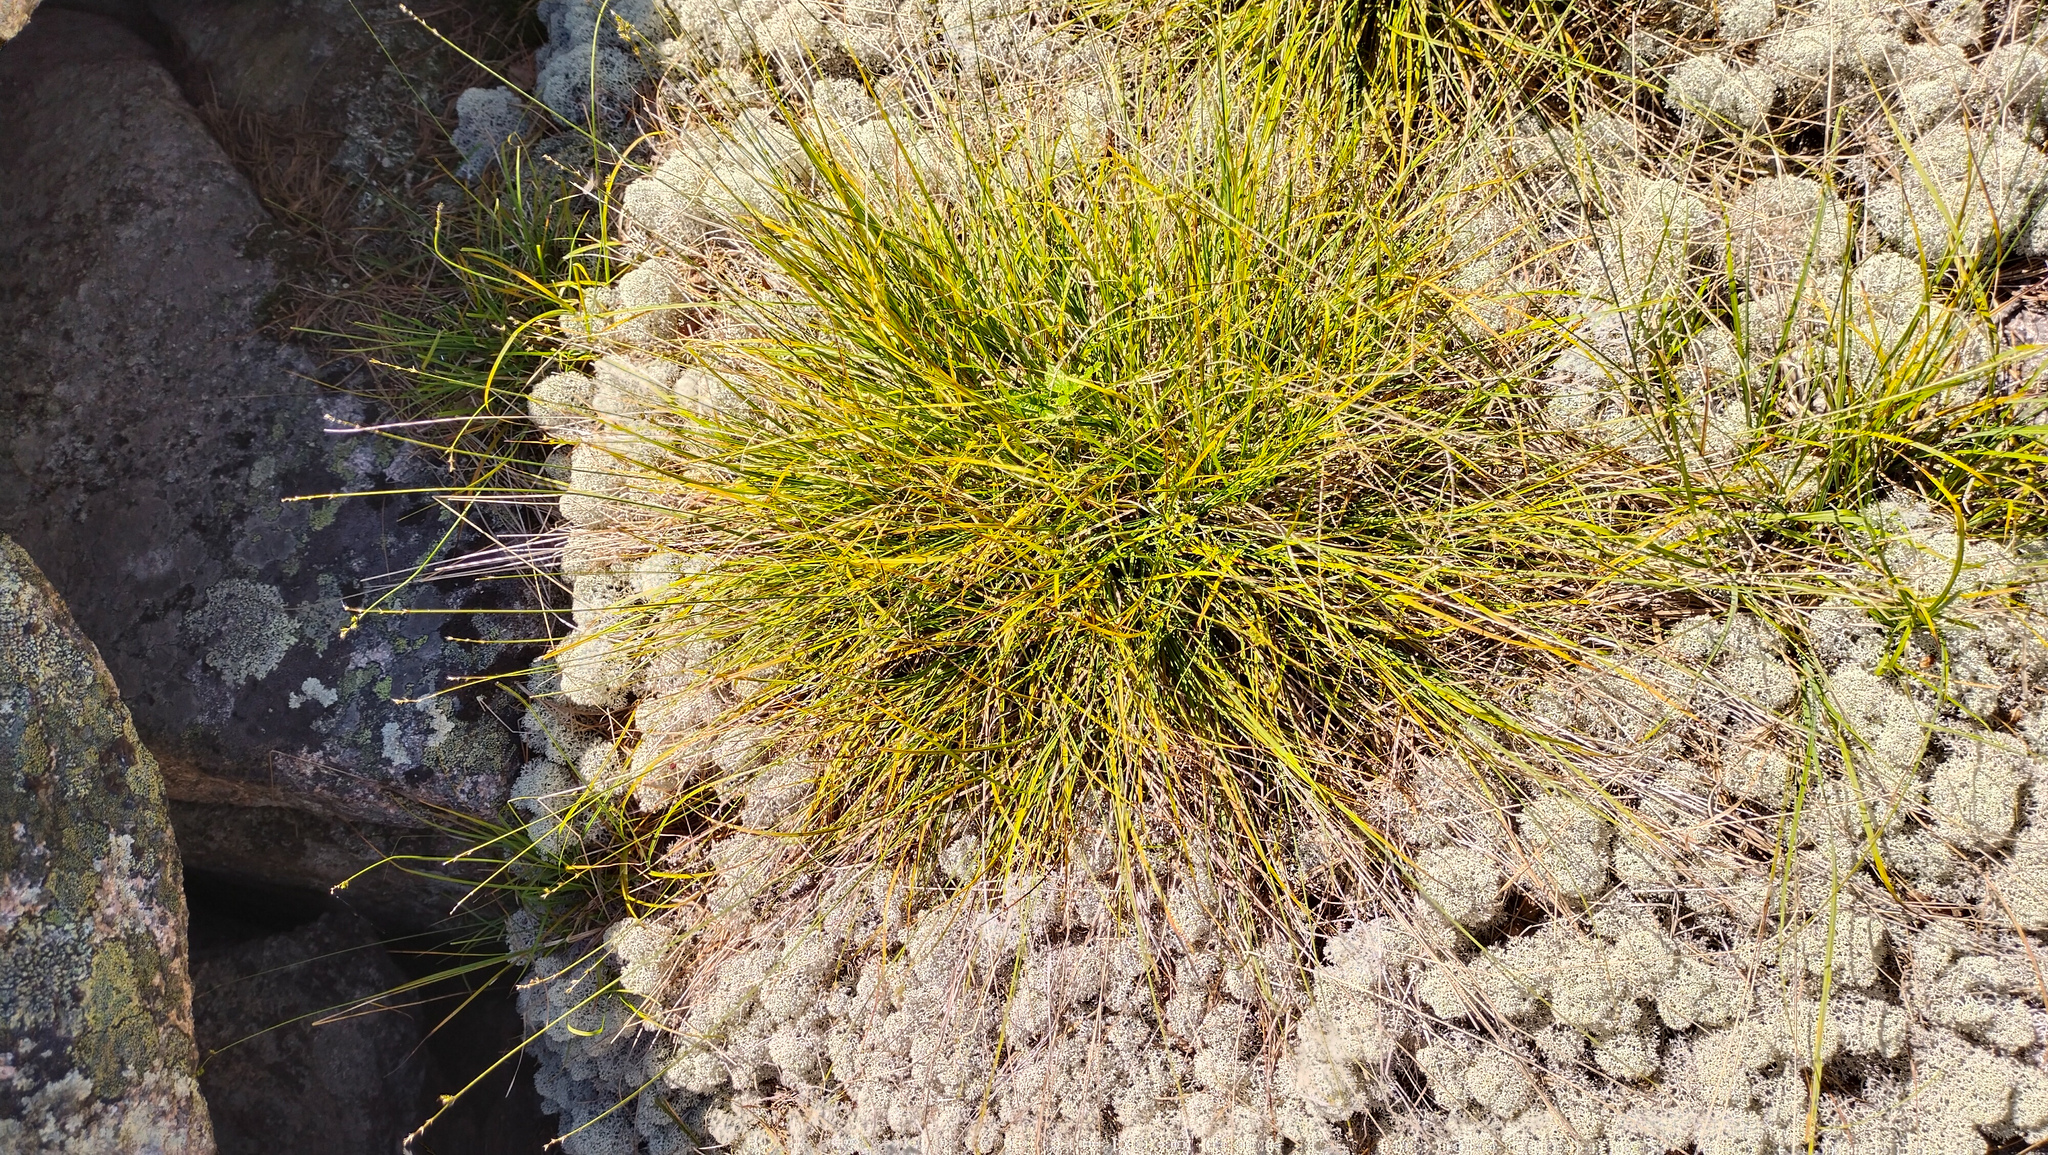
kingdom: Plantae
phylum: Tracheophyta
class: Liliopsida
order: Poales
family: Cyperaceae
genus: Carex
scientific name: Carex brunnescens
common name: Brown sedge
